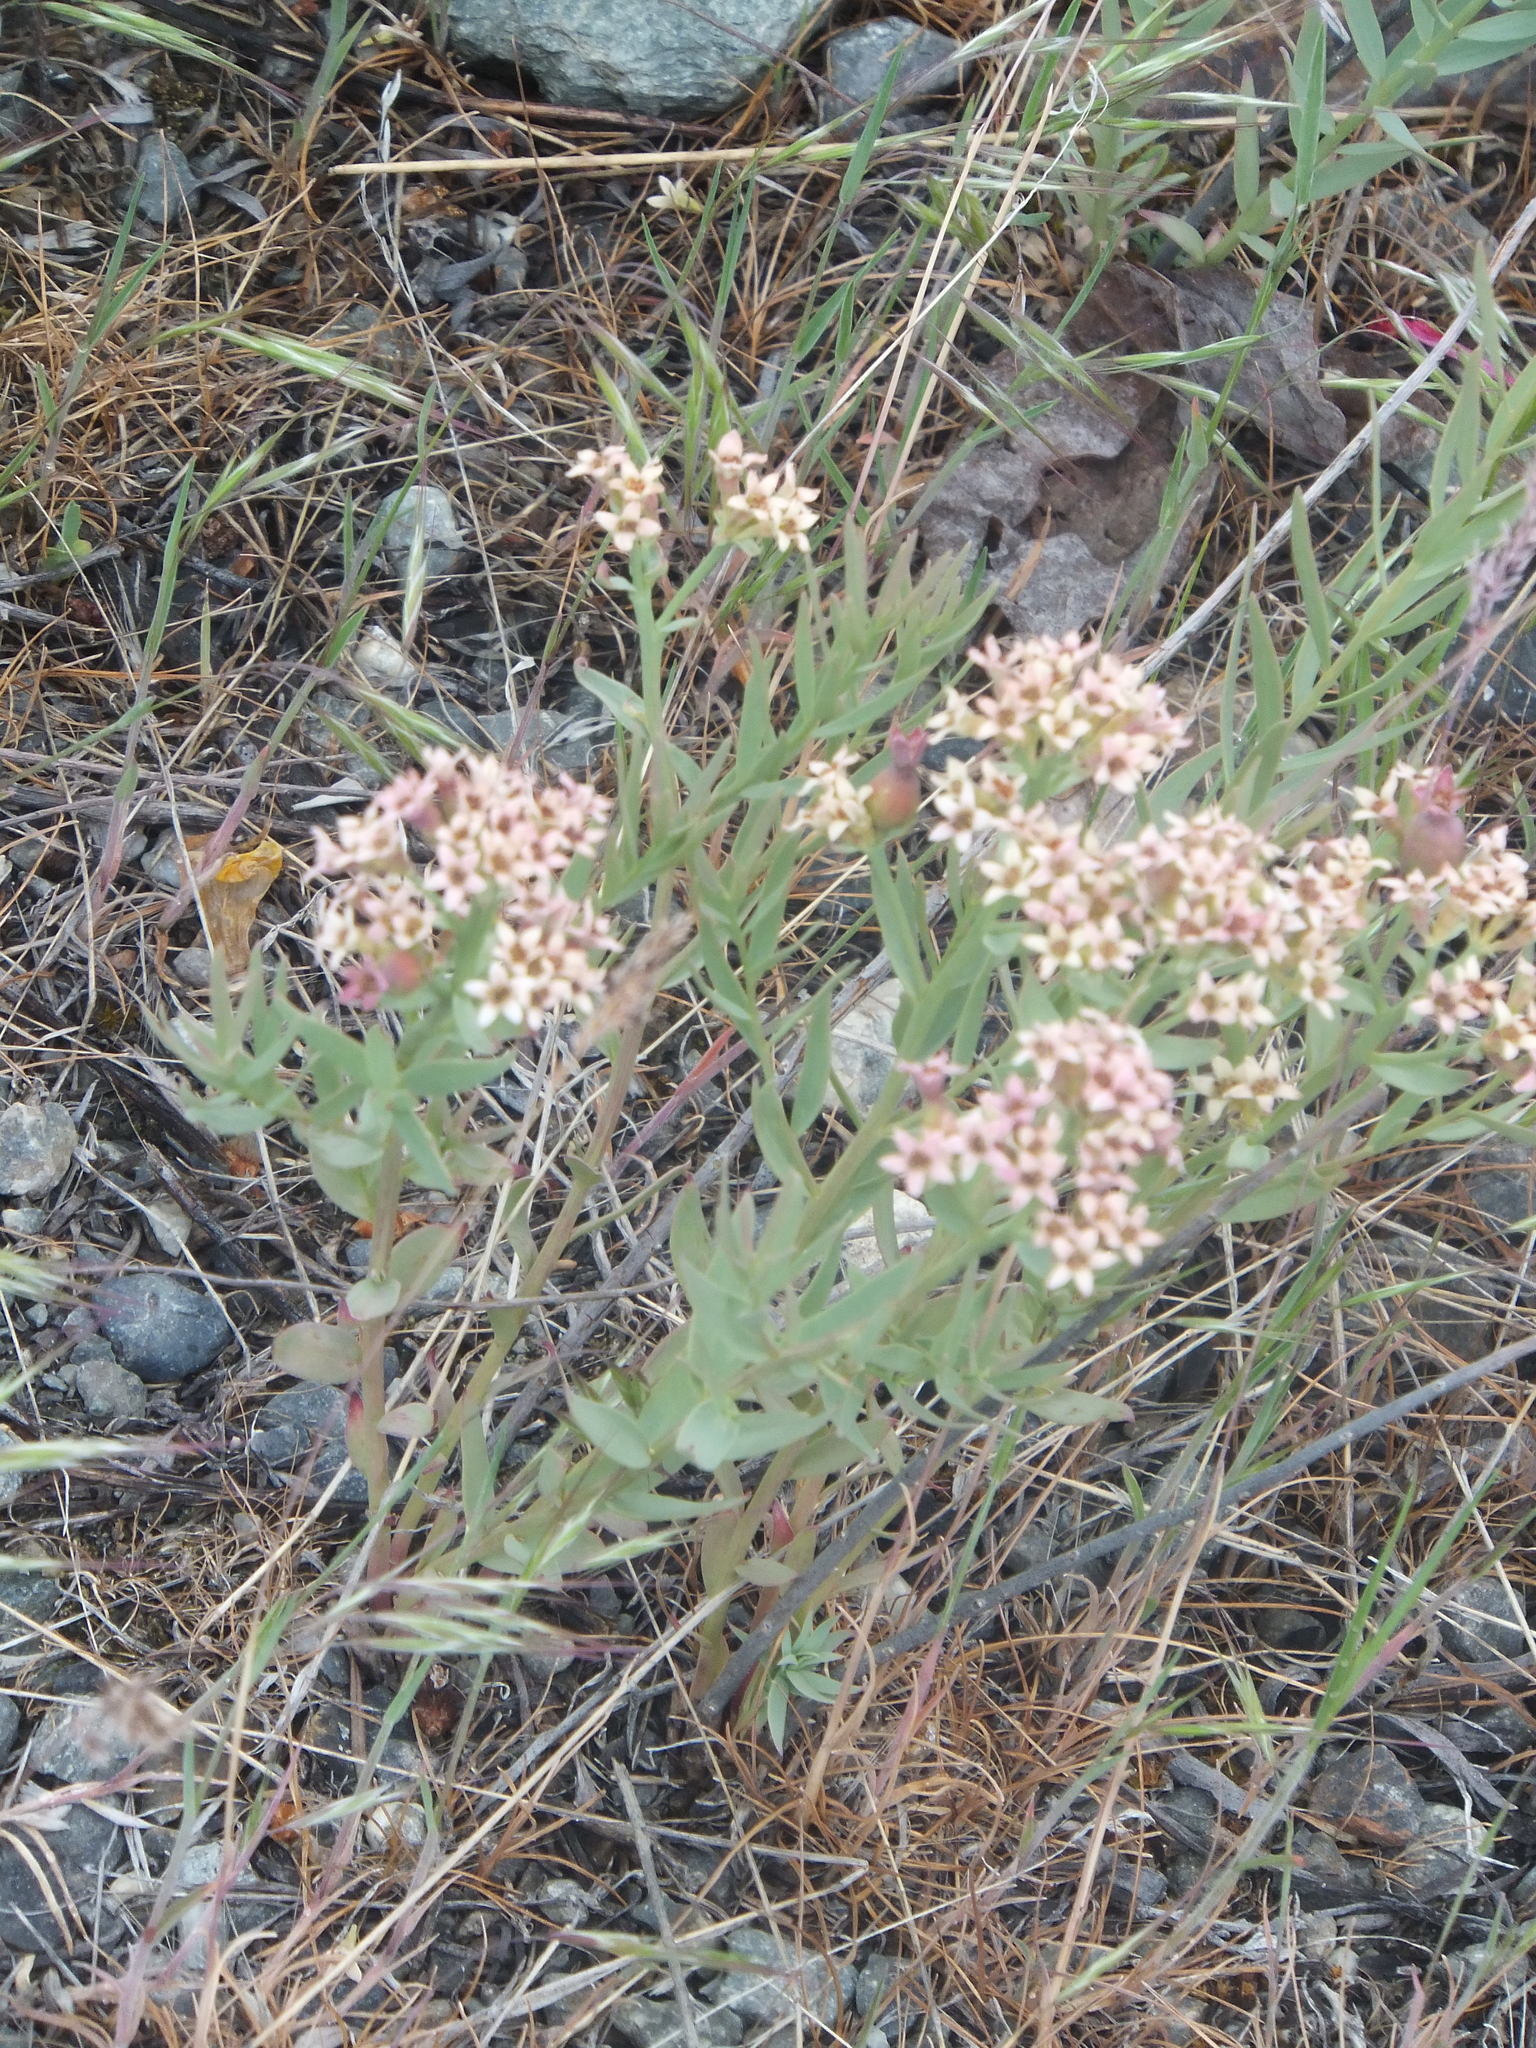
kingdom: Plantae
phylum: Tracheophyta
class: Magnoliopsida
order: Santalales
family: Comandraceae
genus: Comandra
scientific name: Comandra umbellata
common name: Bastard toadflax
